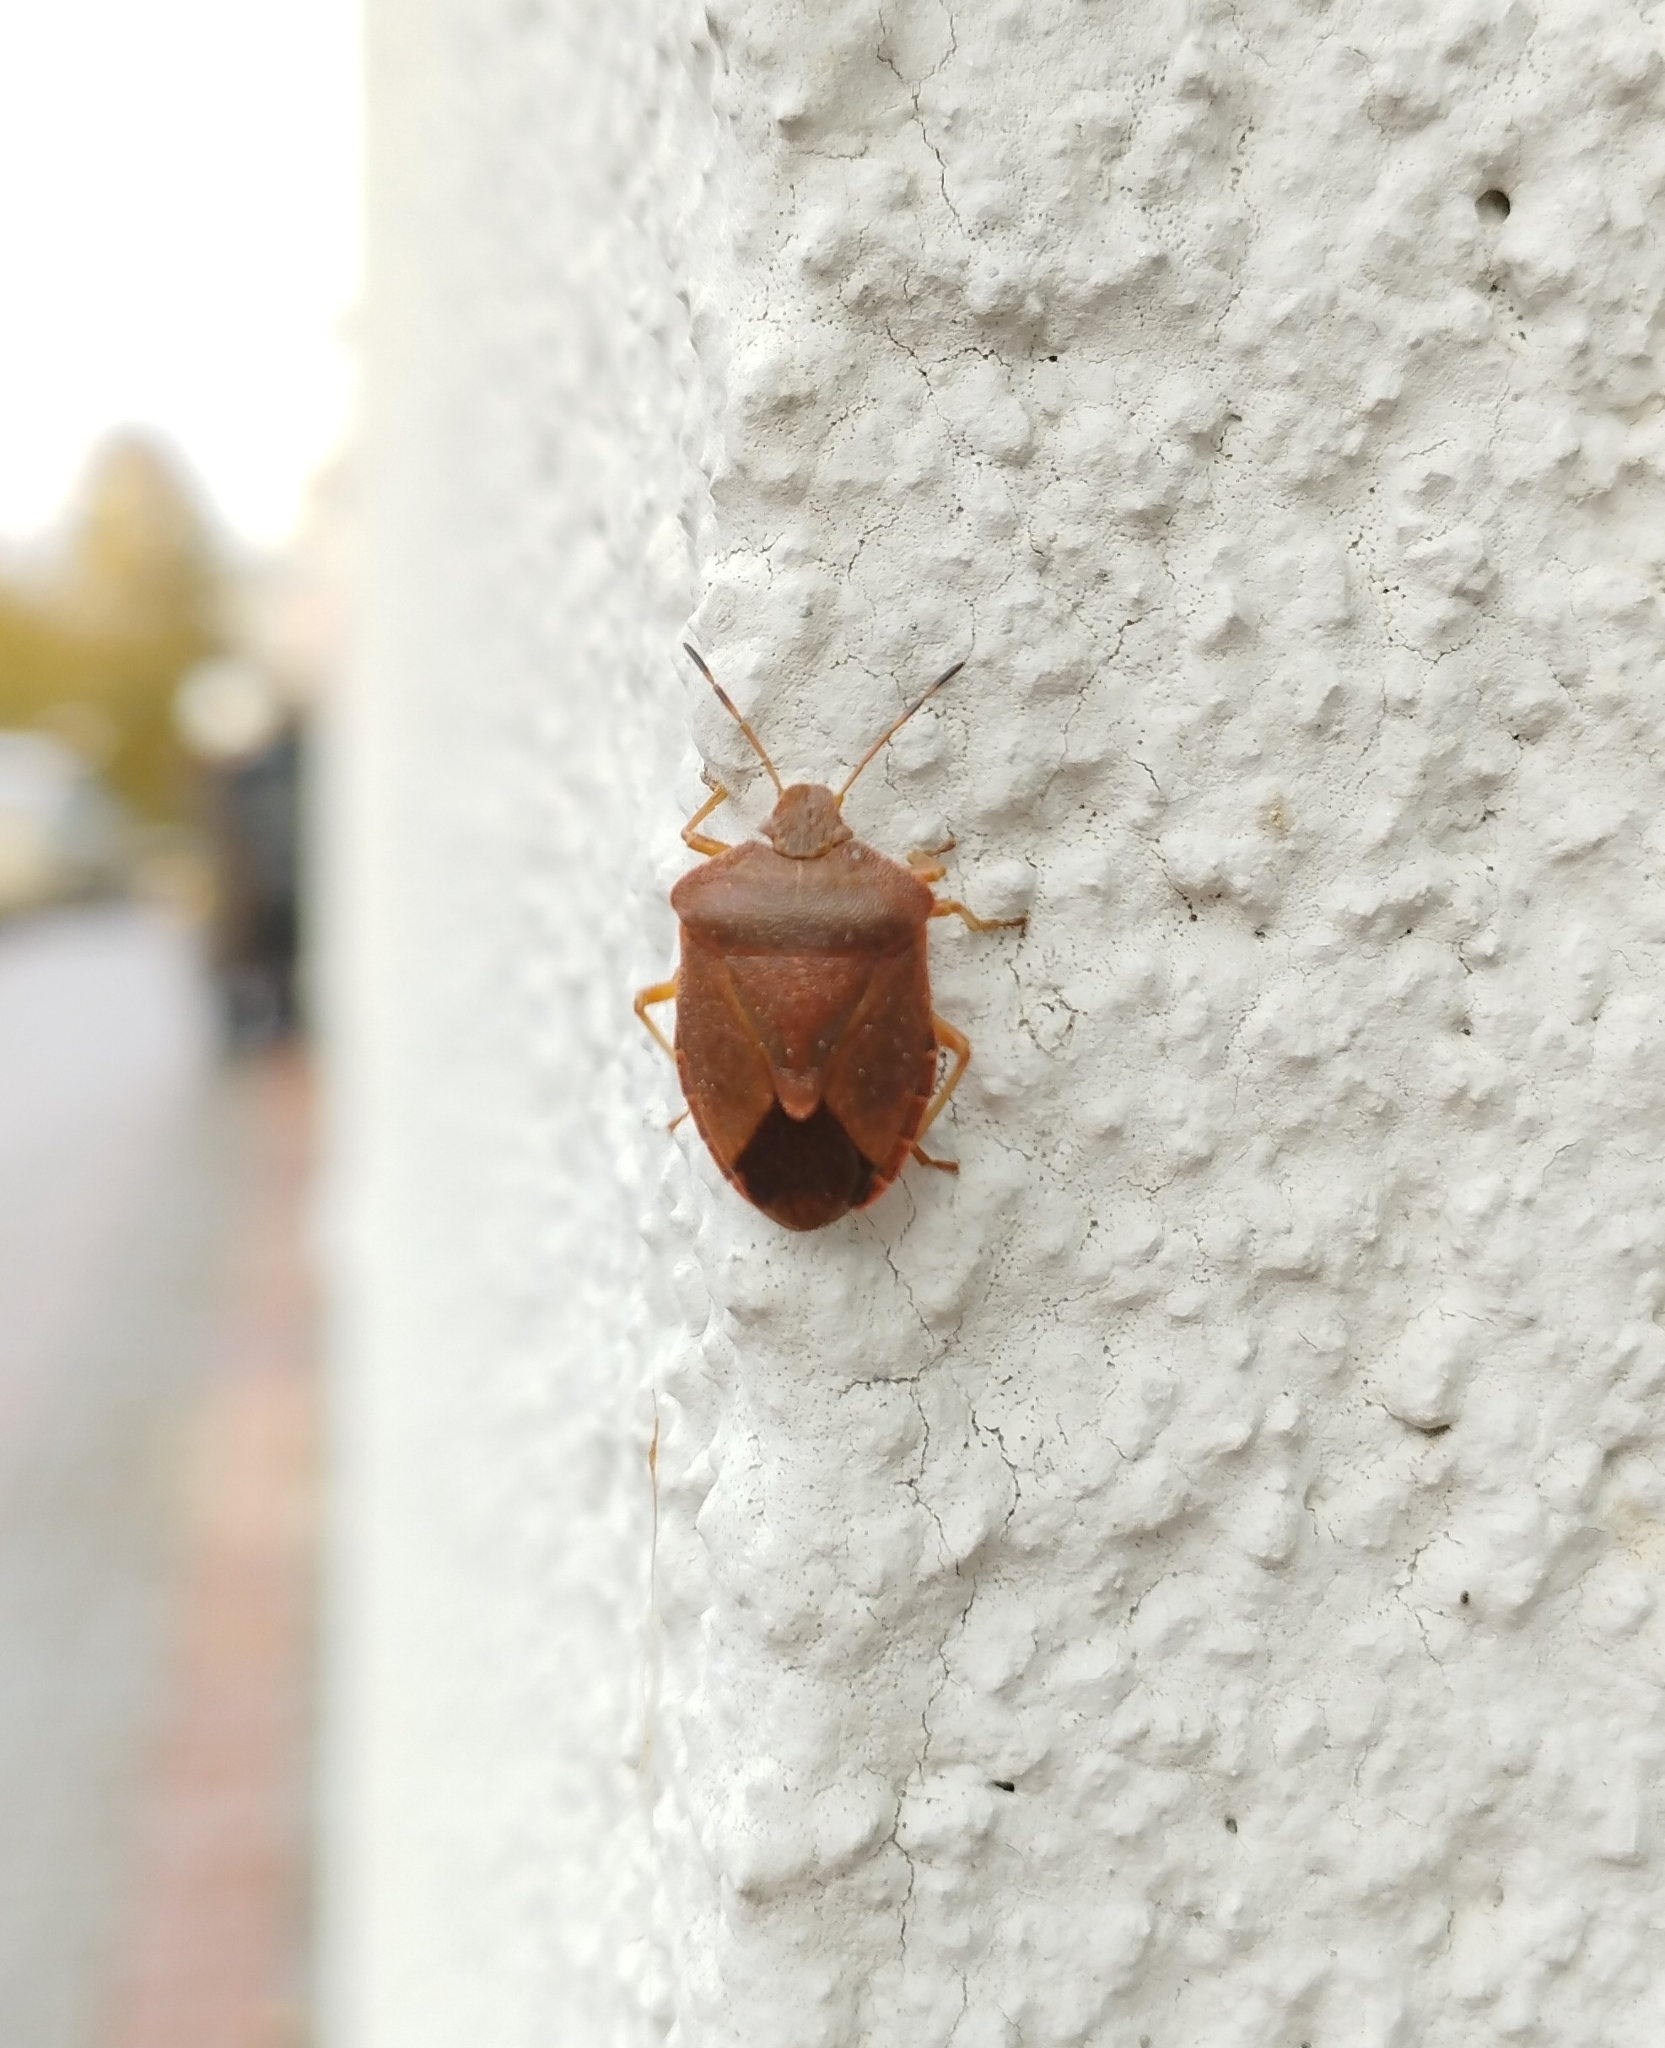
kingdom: Animalia
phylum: Arthropoda
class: Insecta
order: Hemiptera
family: Pentatomidae
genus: Palomena
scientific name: Palomena prasina
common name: Green shieldbug
